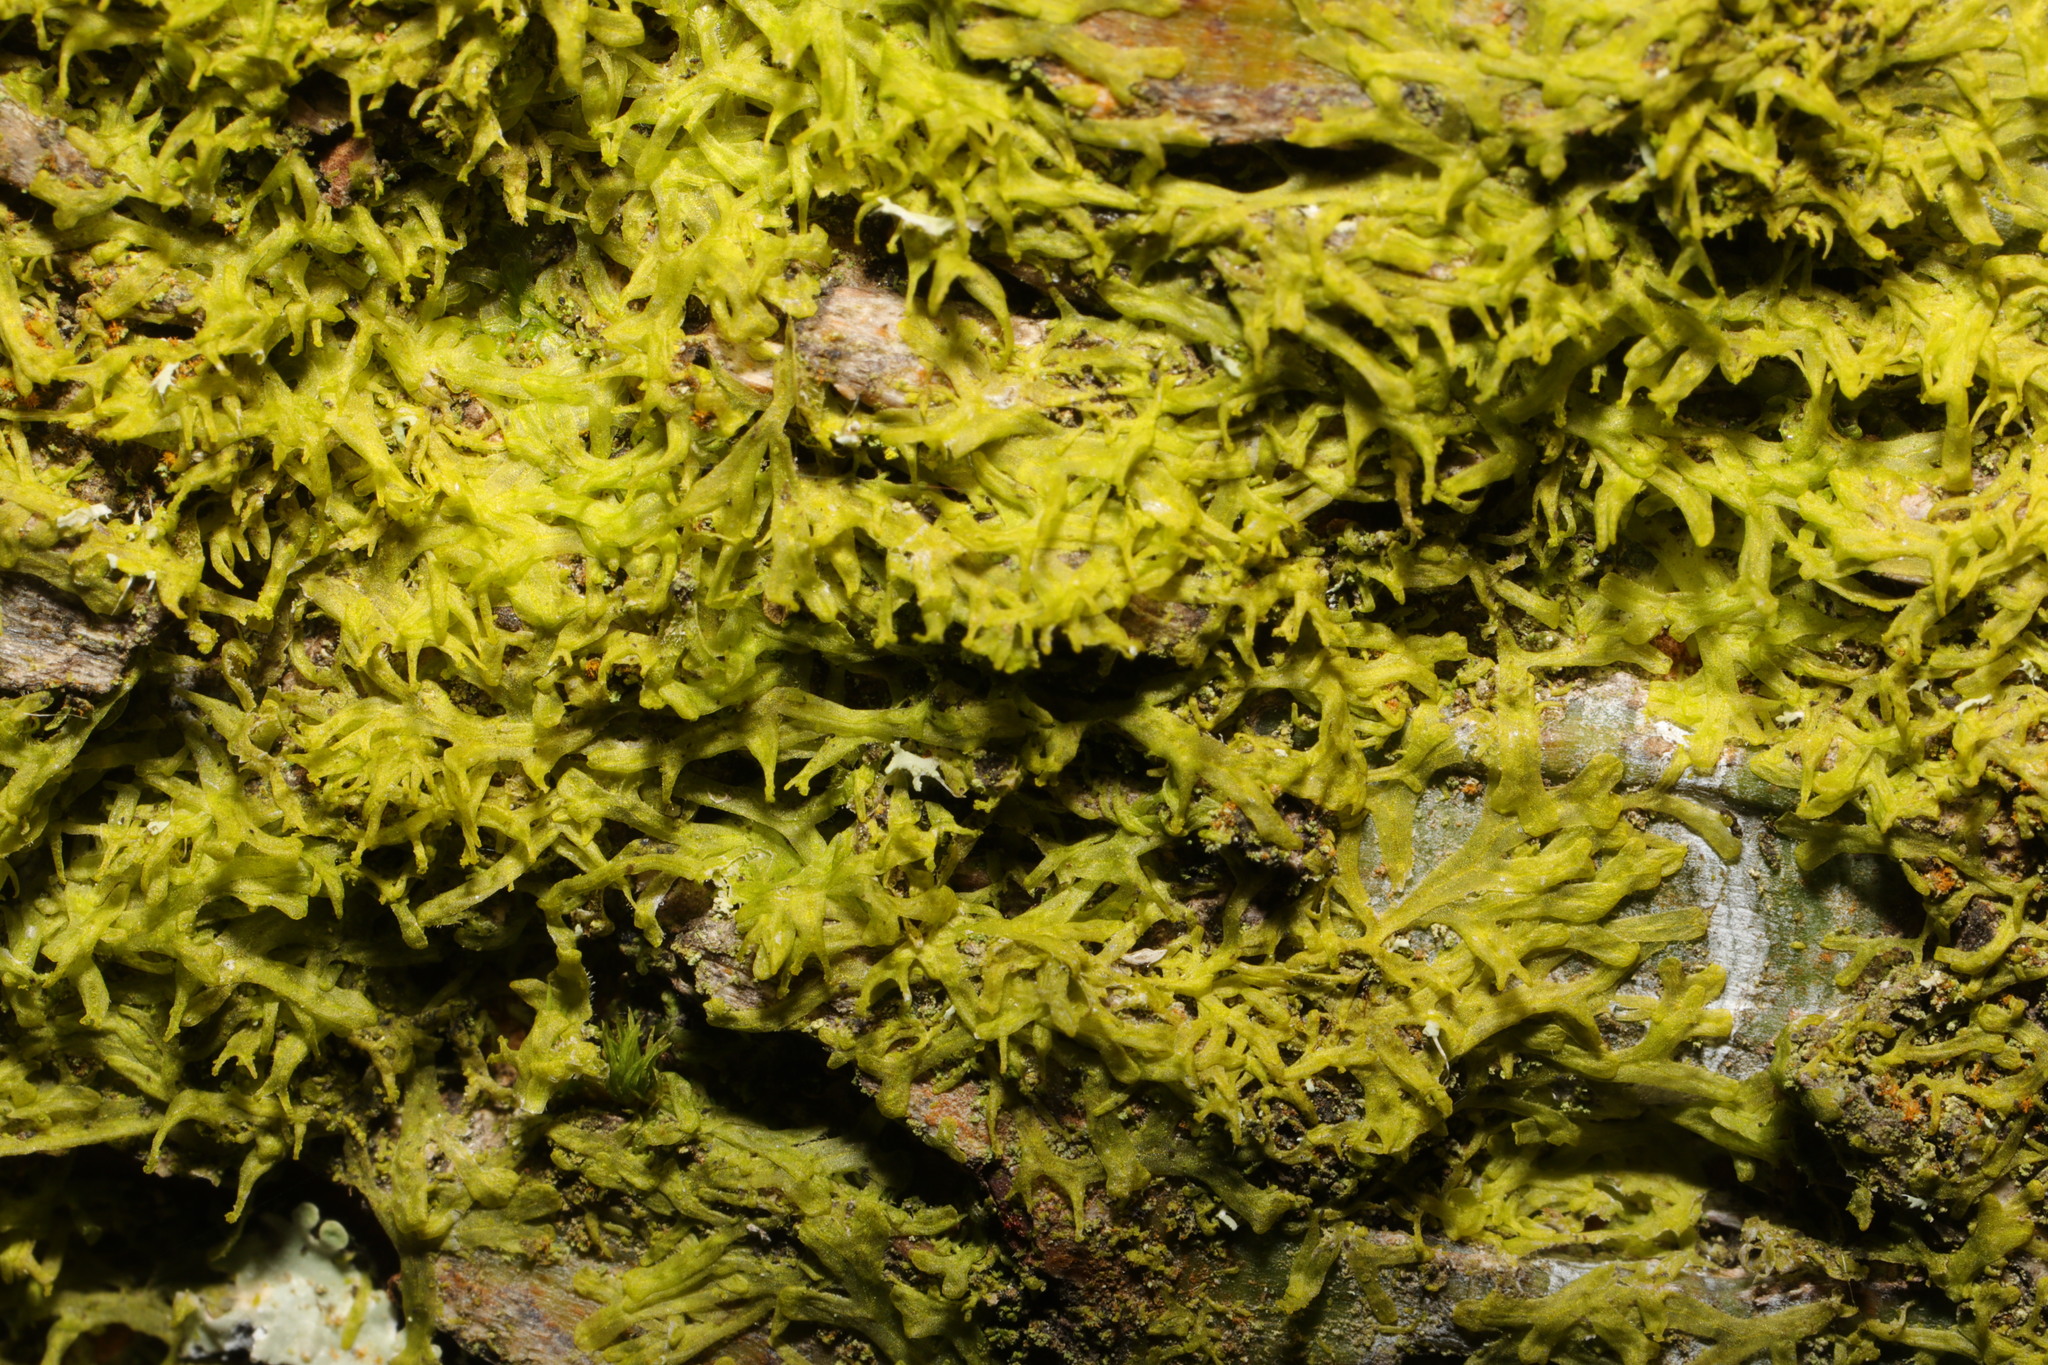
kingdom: Plantae
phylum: Marchantiophyta
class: Jungermanniopsida
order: Metzgeriales
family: Metzgeriaceae
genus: Metzgeria
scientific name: Metzgeria violacea
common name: Blueish veilwort
